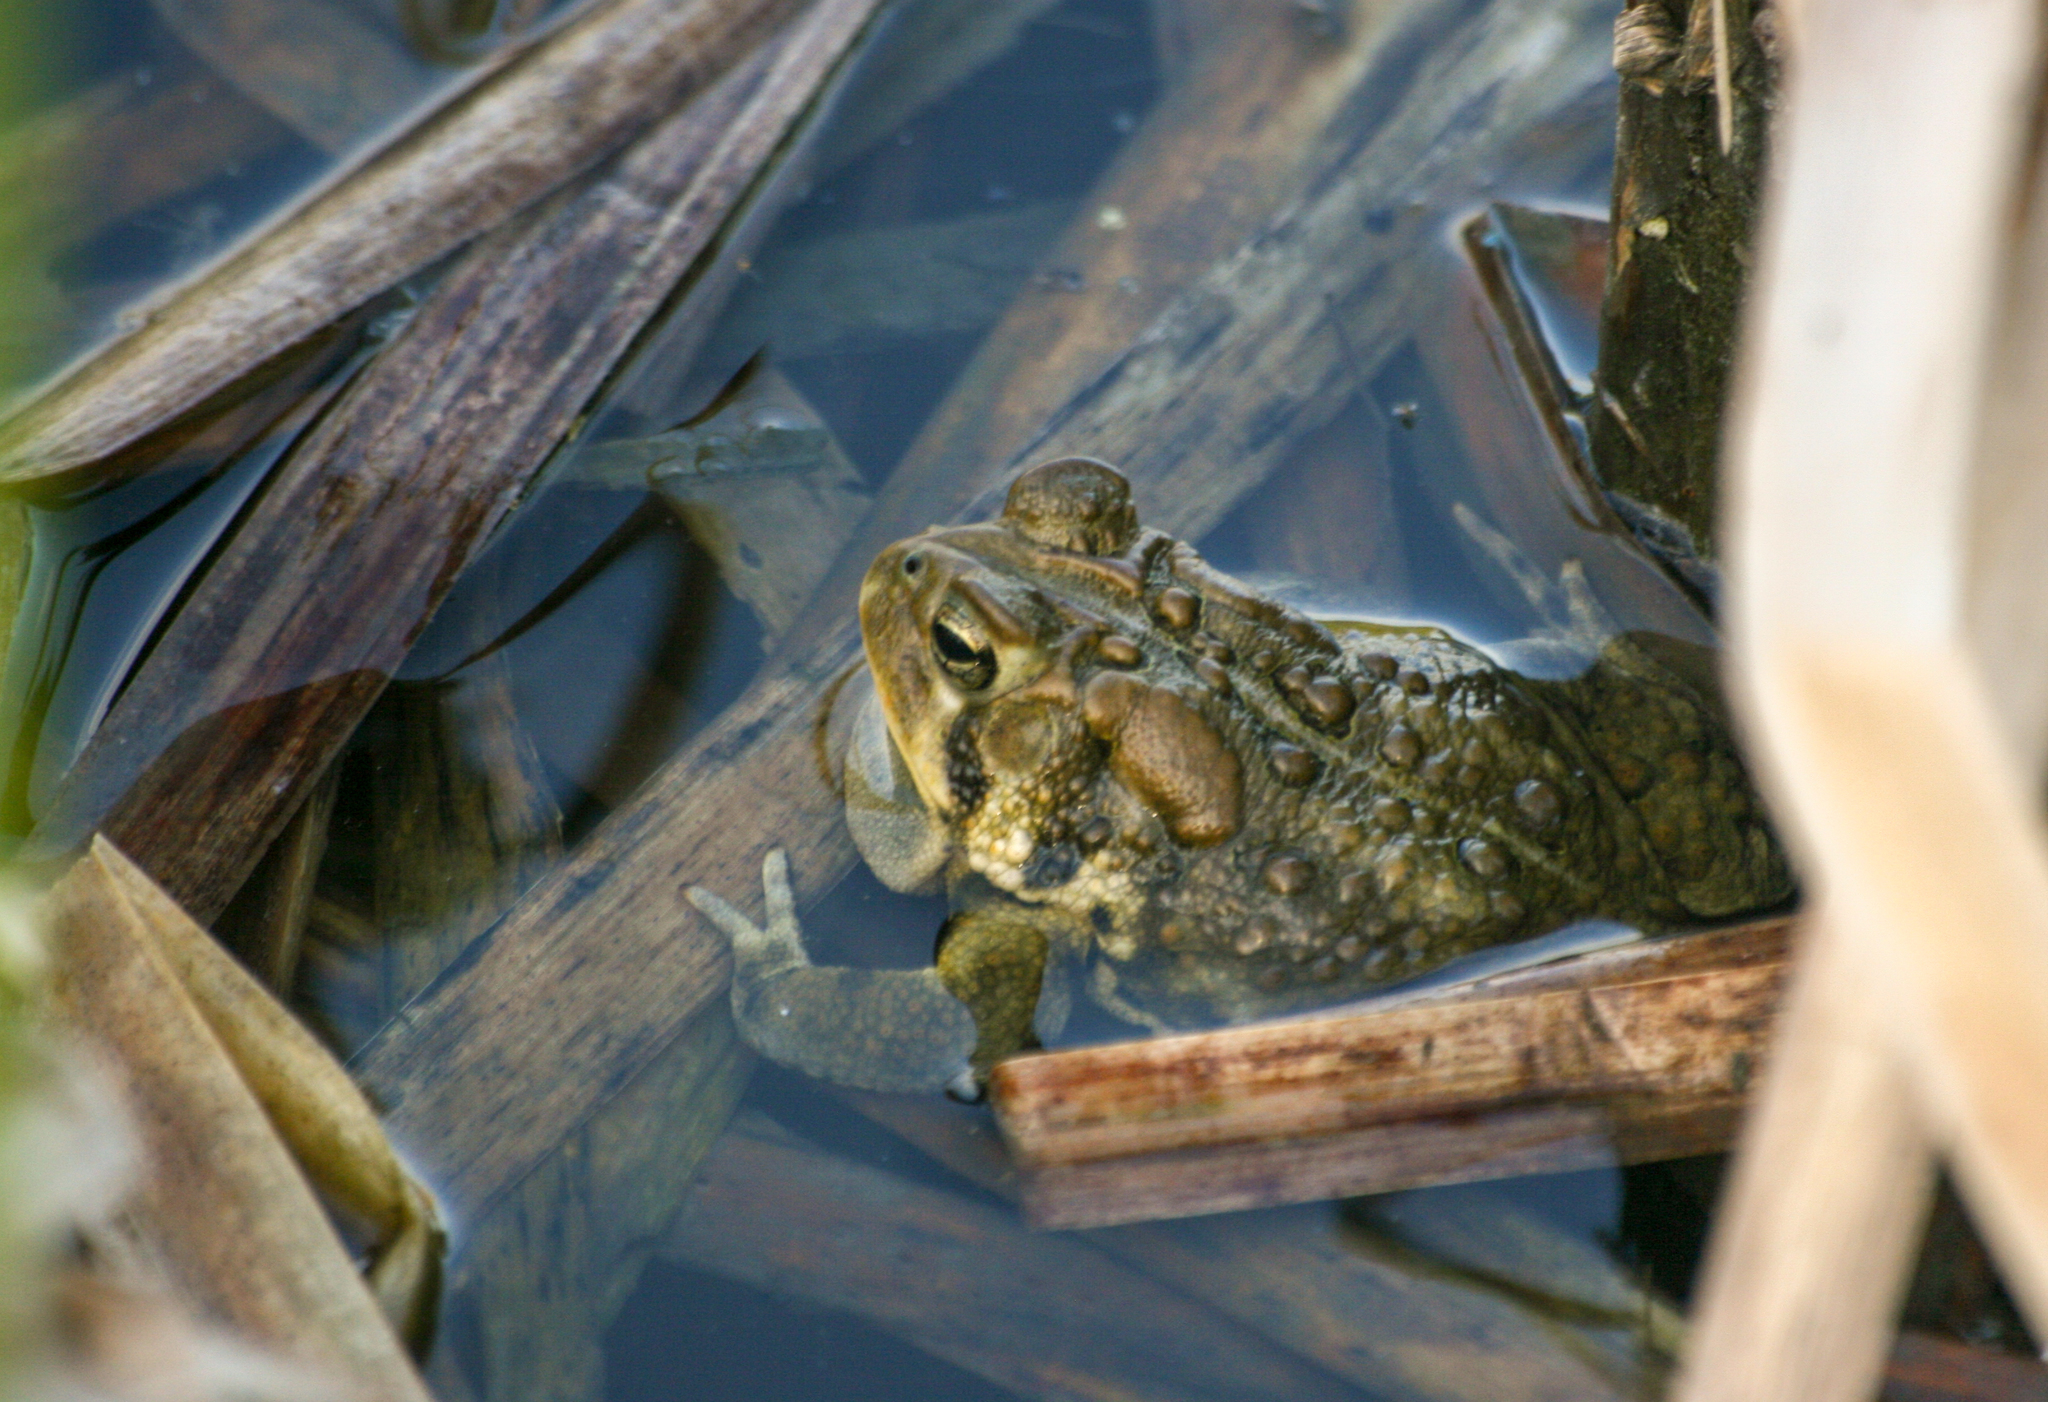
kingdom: Animalia
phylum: Chordata
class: Amphibia
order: Anura
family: Bufonidae
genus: Anaxyrus
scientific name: Anaxyrus americanus
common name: American toad
